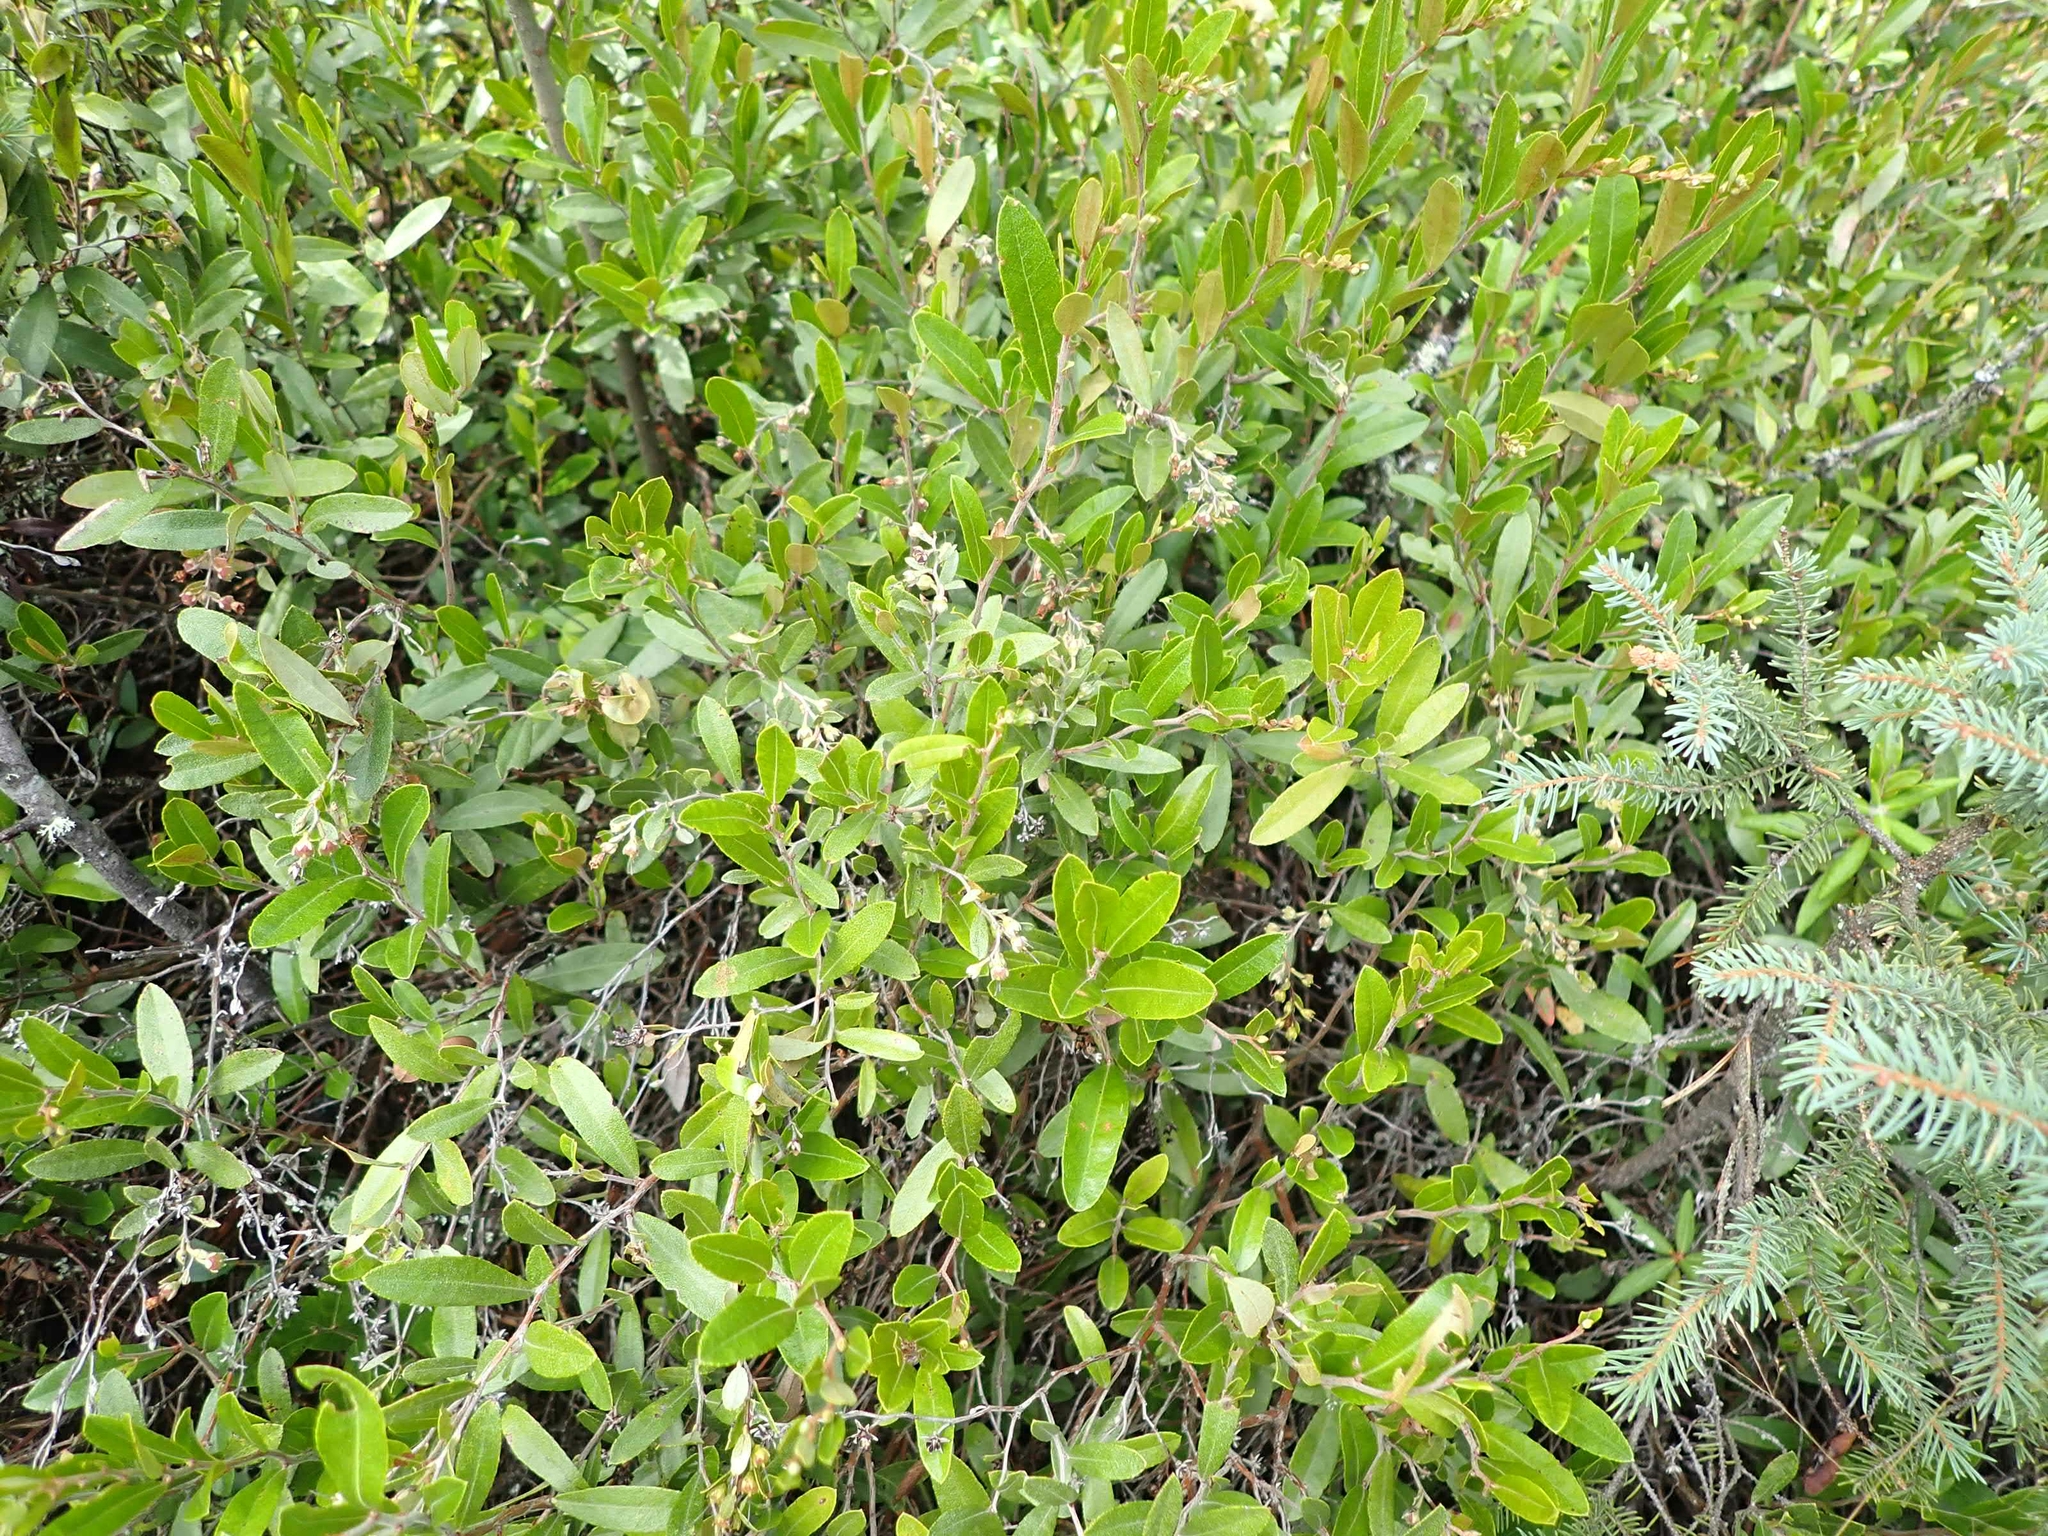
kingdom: Plantae
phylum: Tracheophyta
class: Magnoliopsida
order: Ericales
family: Ericaceae
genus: Chamaedaphne
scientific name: Chamaedaphne calyculata
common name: Leatherleaf
